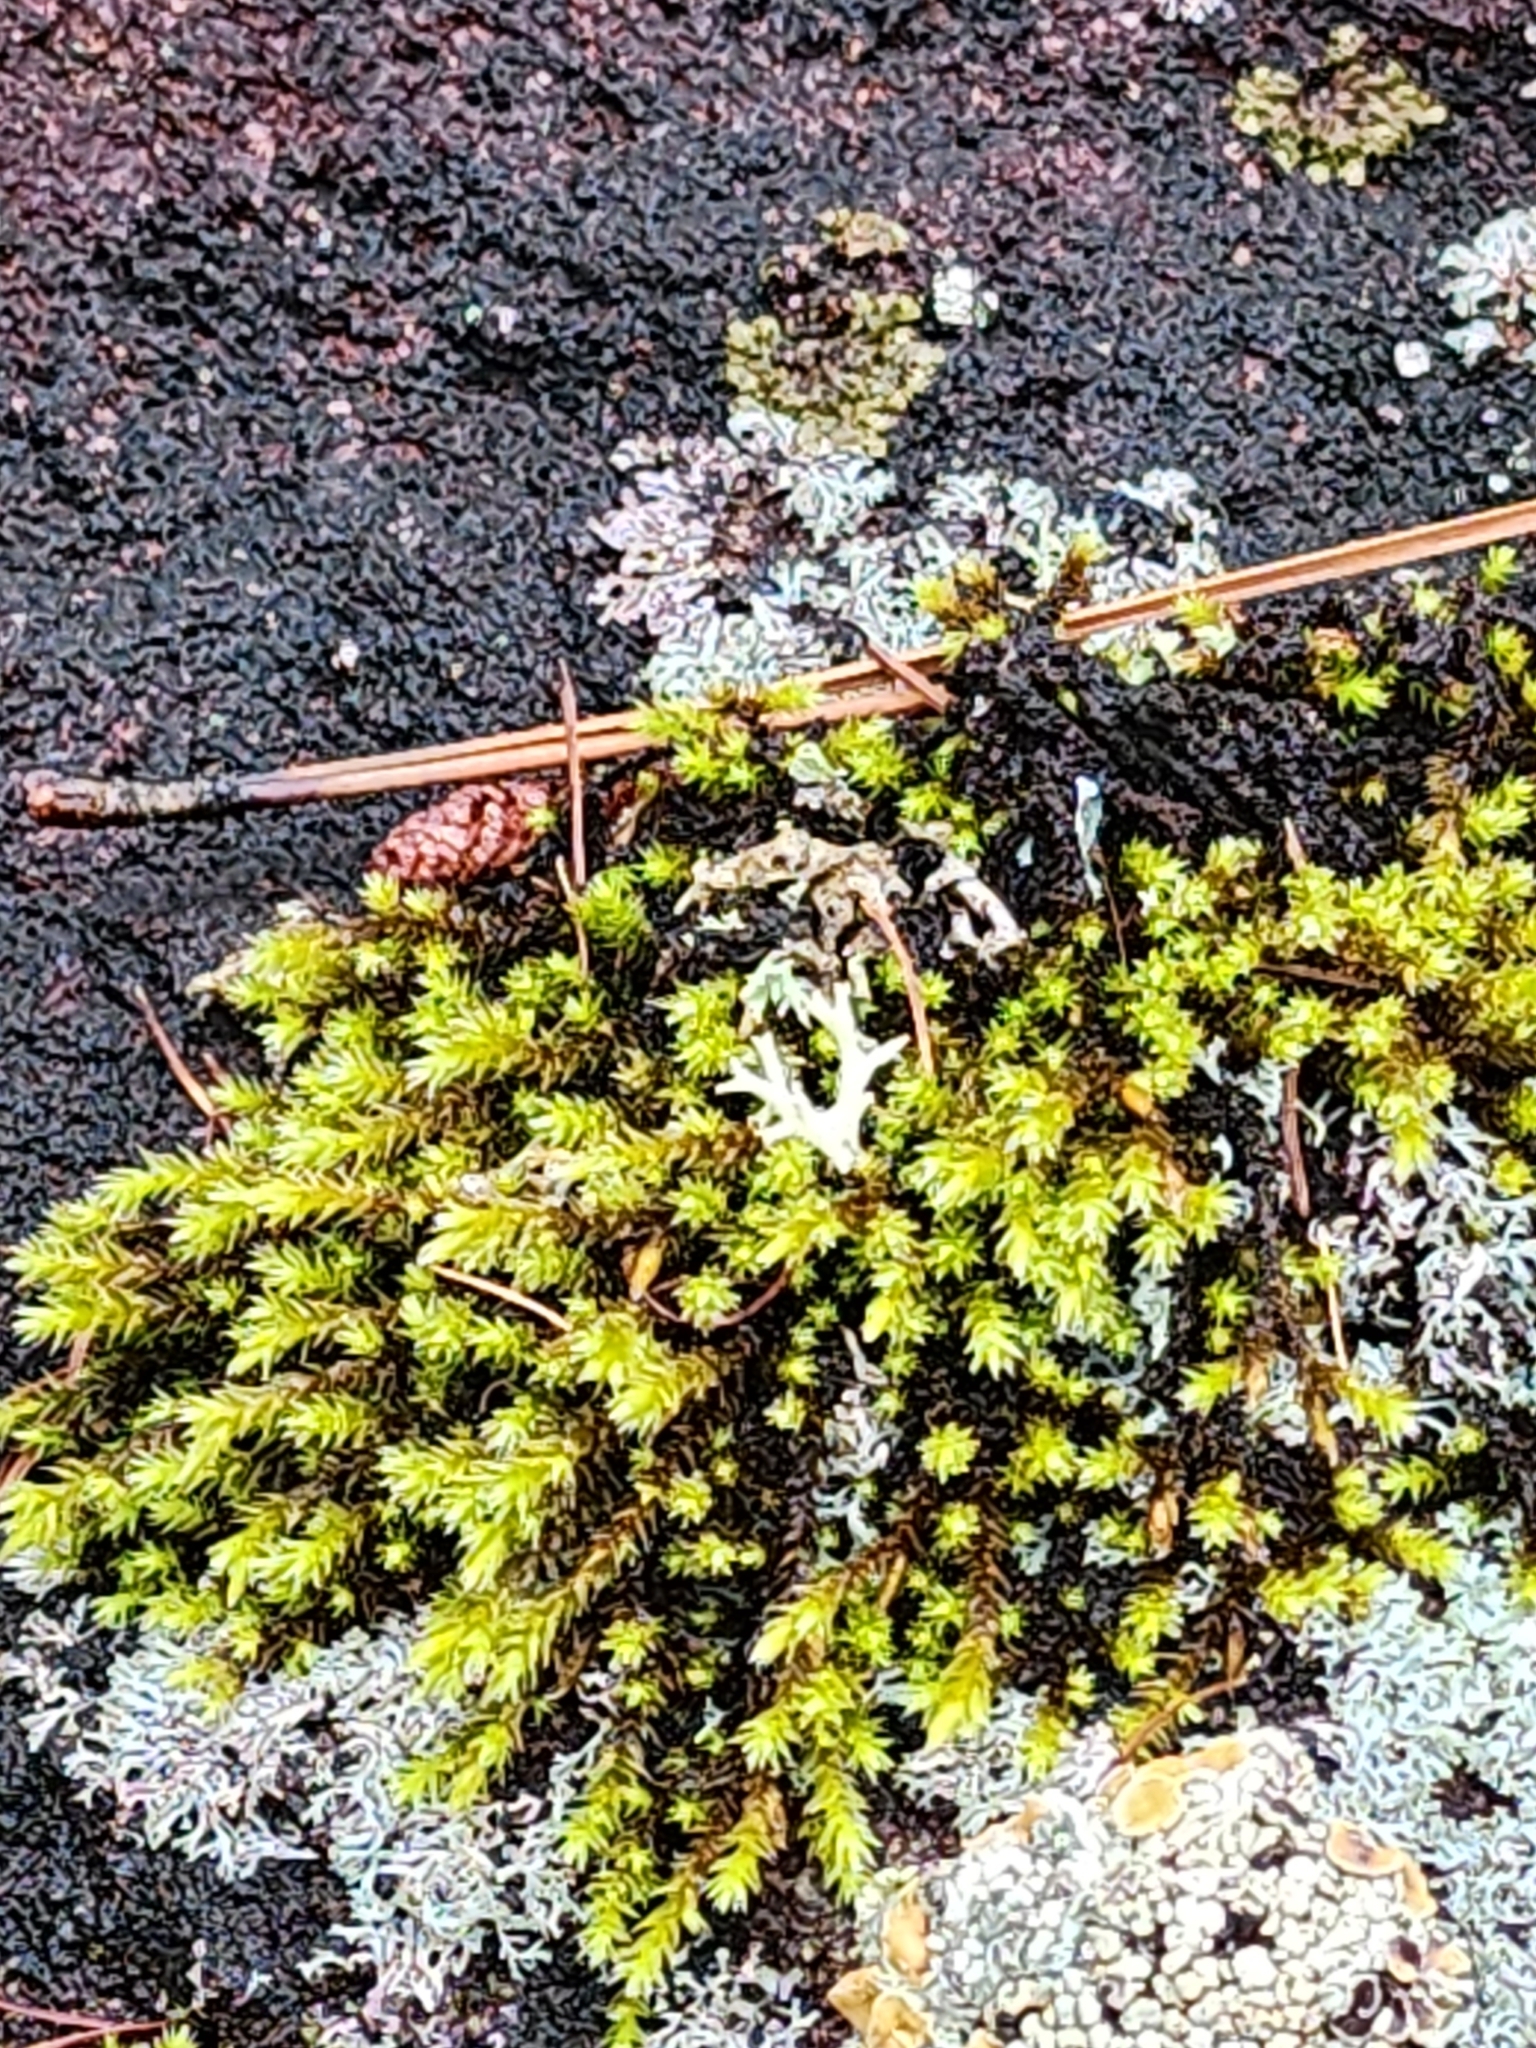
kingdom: Plantae
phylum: Bryophyta
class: Bryopsida
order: Hedwigiales
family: Hedwigiaceae
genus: Hedwigia
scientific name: Hedwigia ciliata
